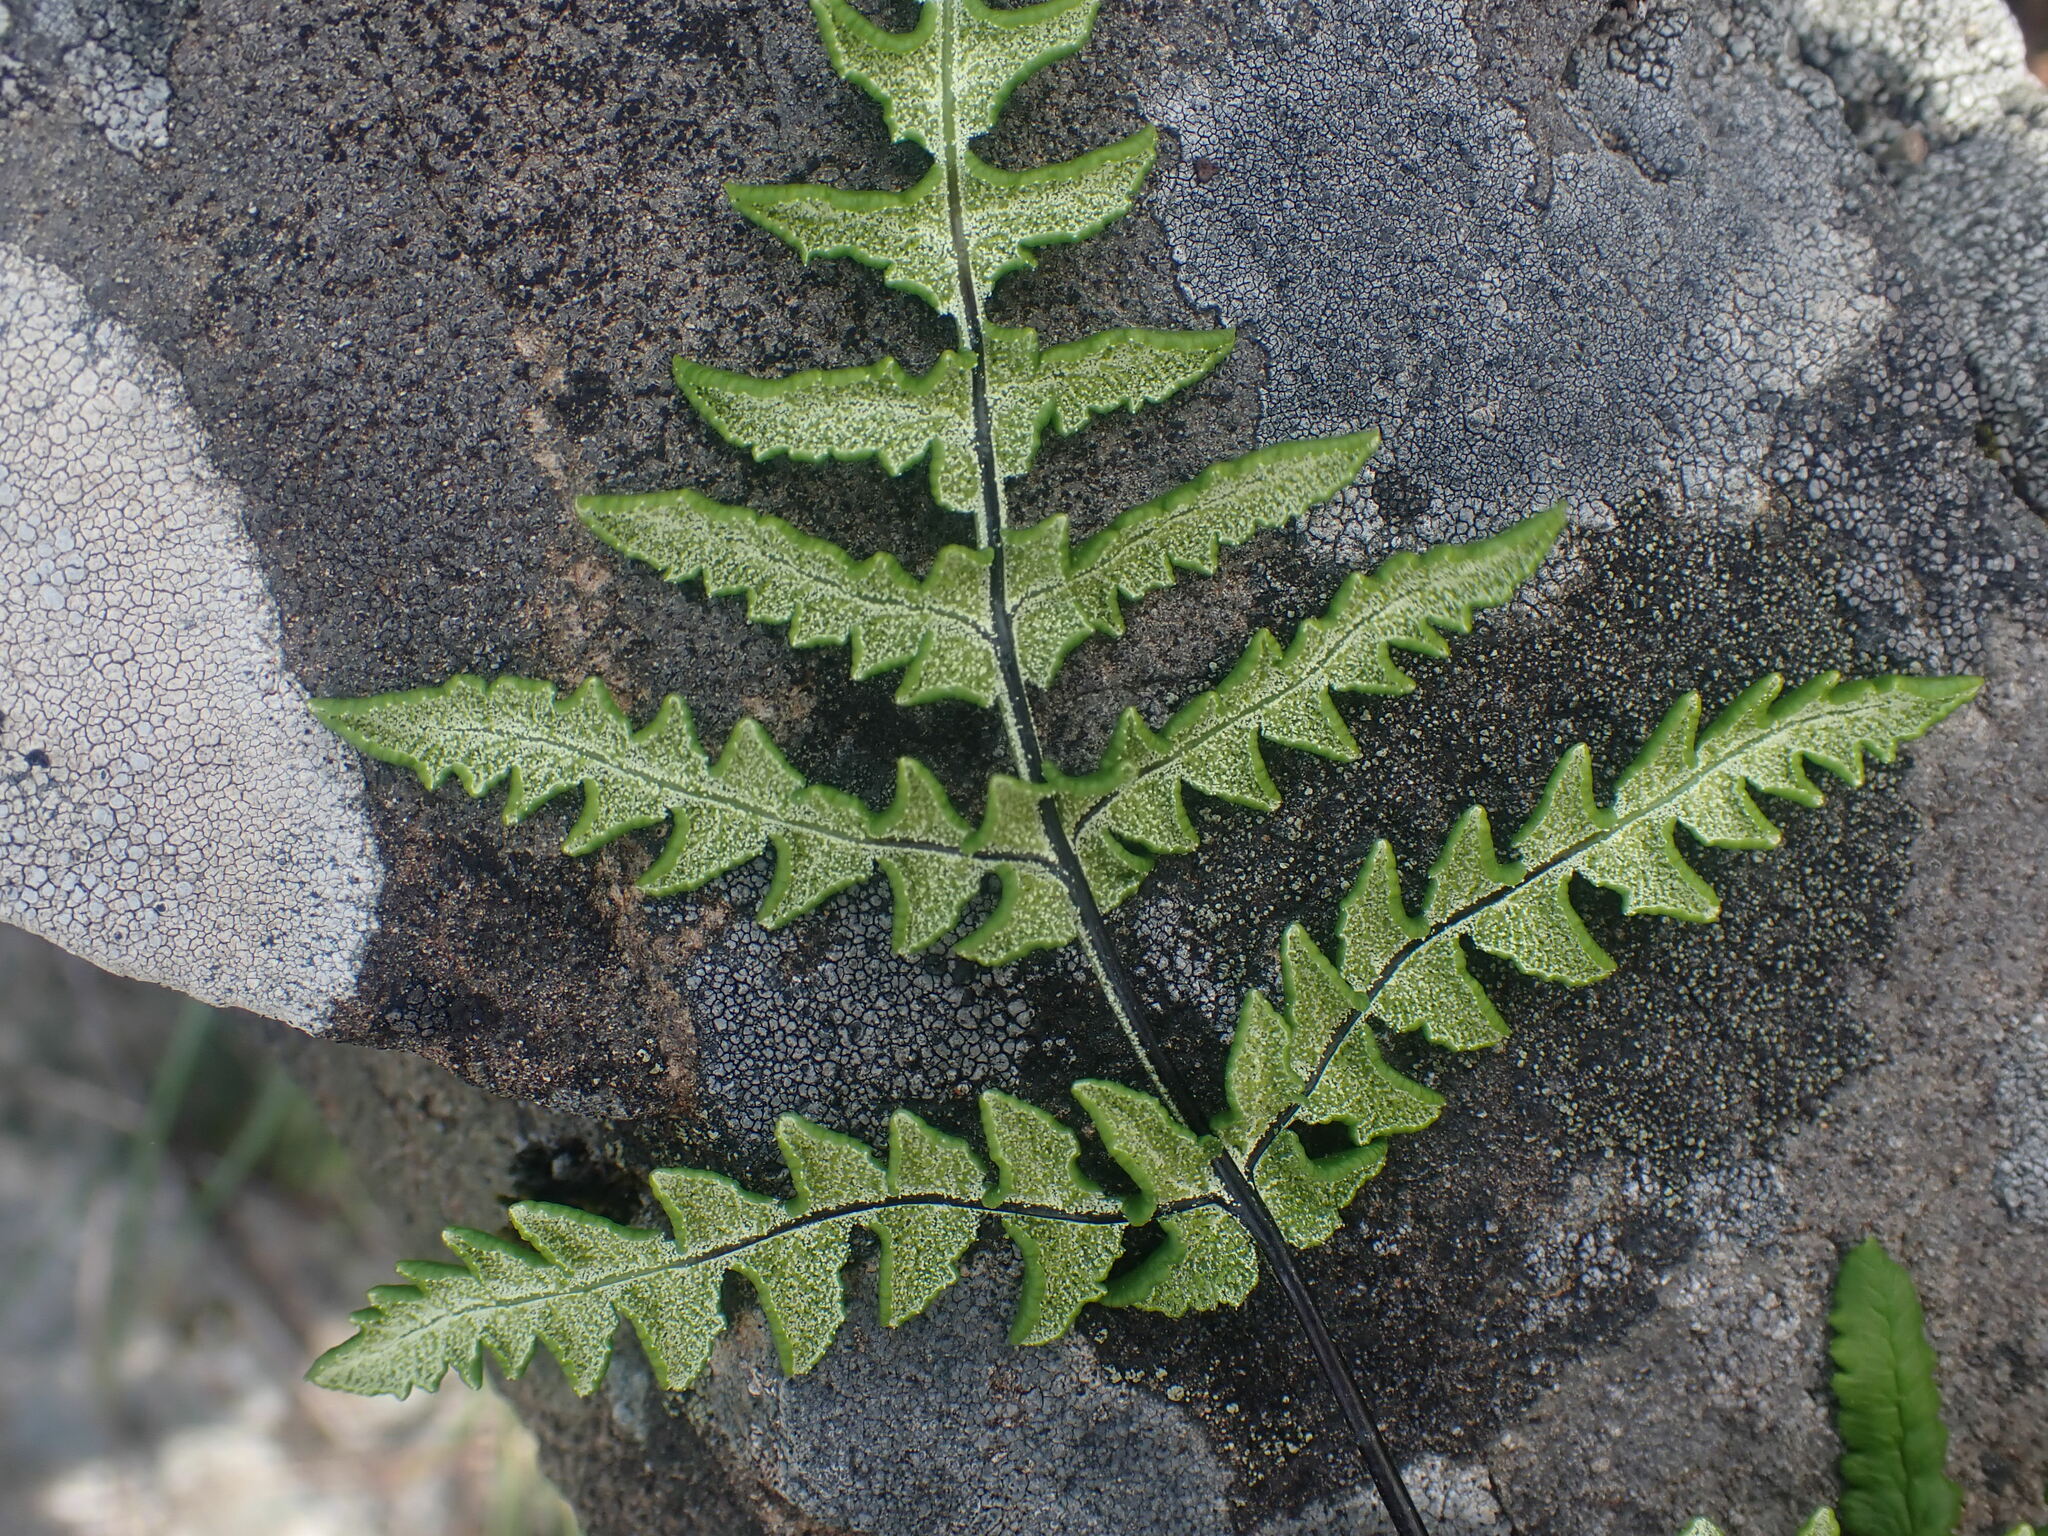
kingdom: Plantae
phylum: Tracheophyta
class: Polypodiopsida
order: Polypodiales
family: Pteridaceae
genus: Pentagramma
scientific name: Pentagramma triangularis
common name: Gold fern
